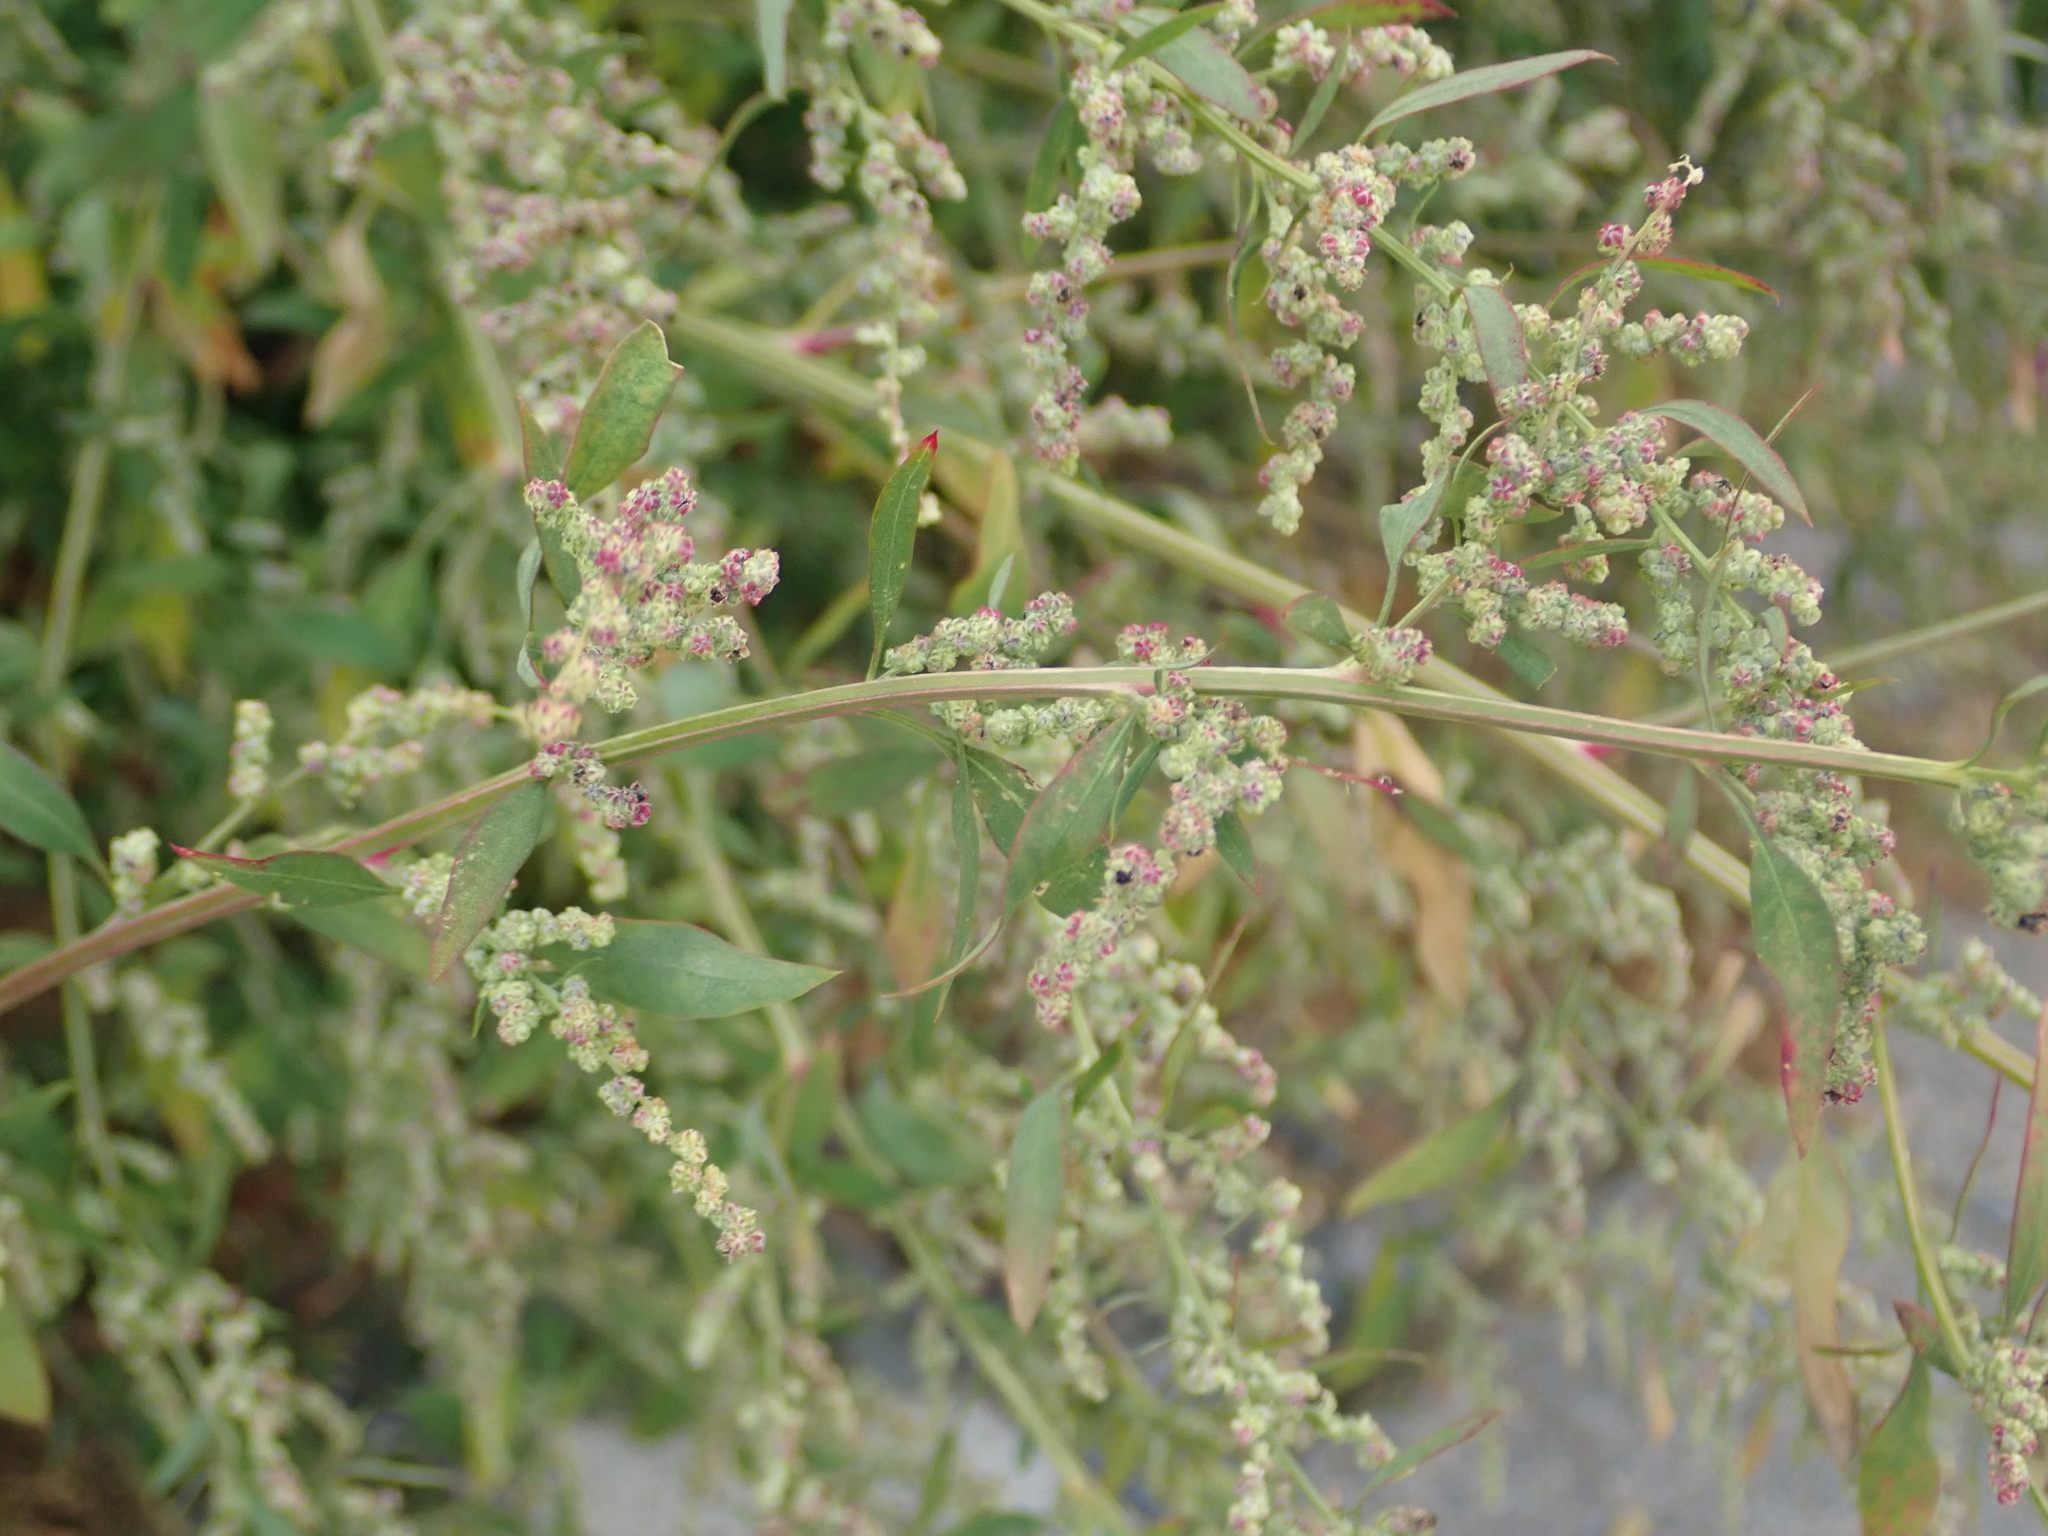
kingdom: Plantae
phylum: Tracheophyta
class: Magnoliopsida
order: Caryophyllales
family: Amaranthaceae
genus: Chenopodium
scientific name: Chenopodium album
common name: Fat-hen
